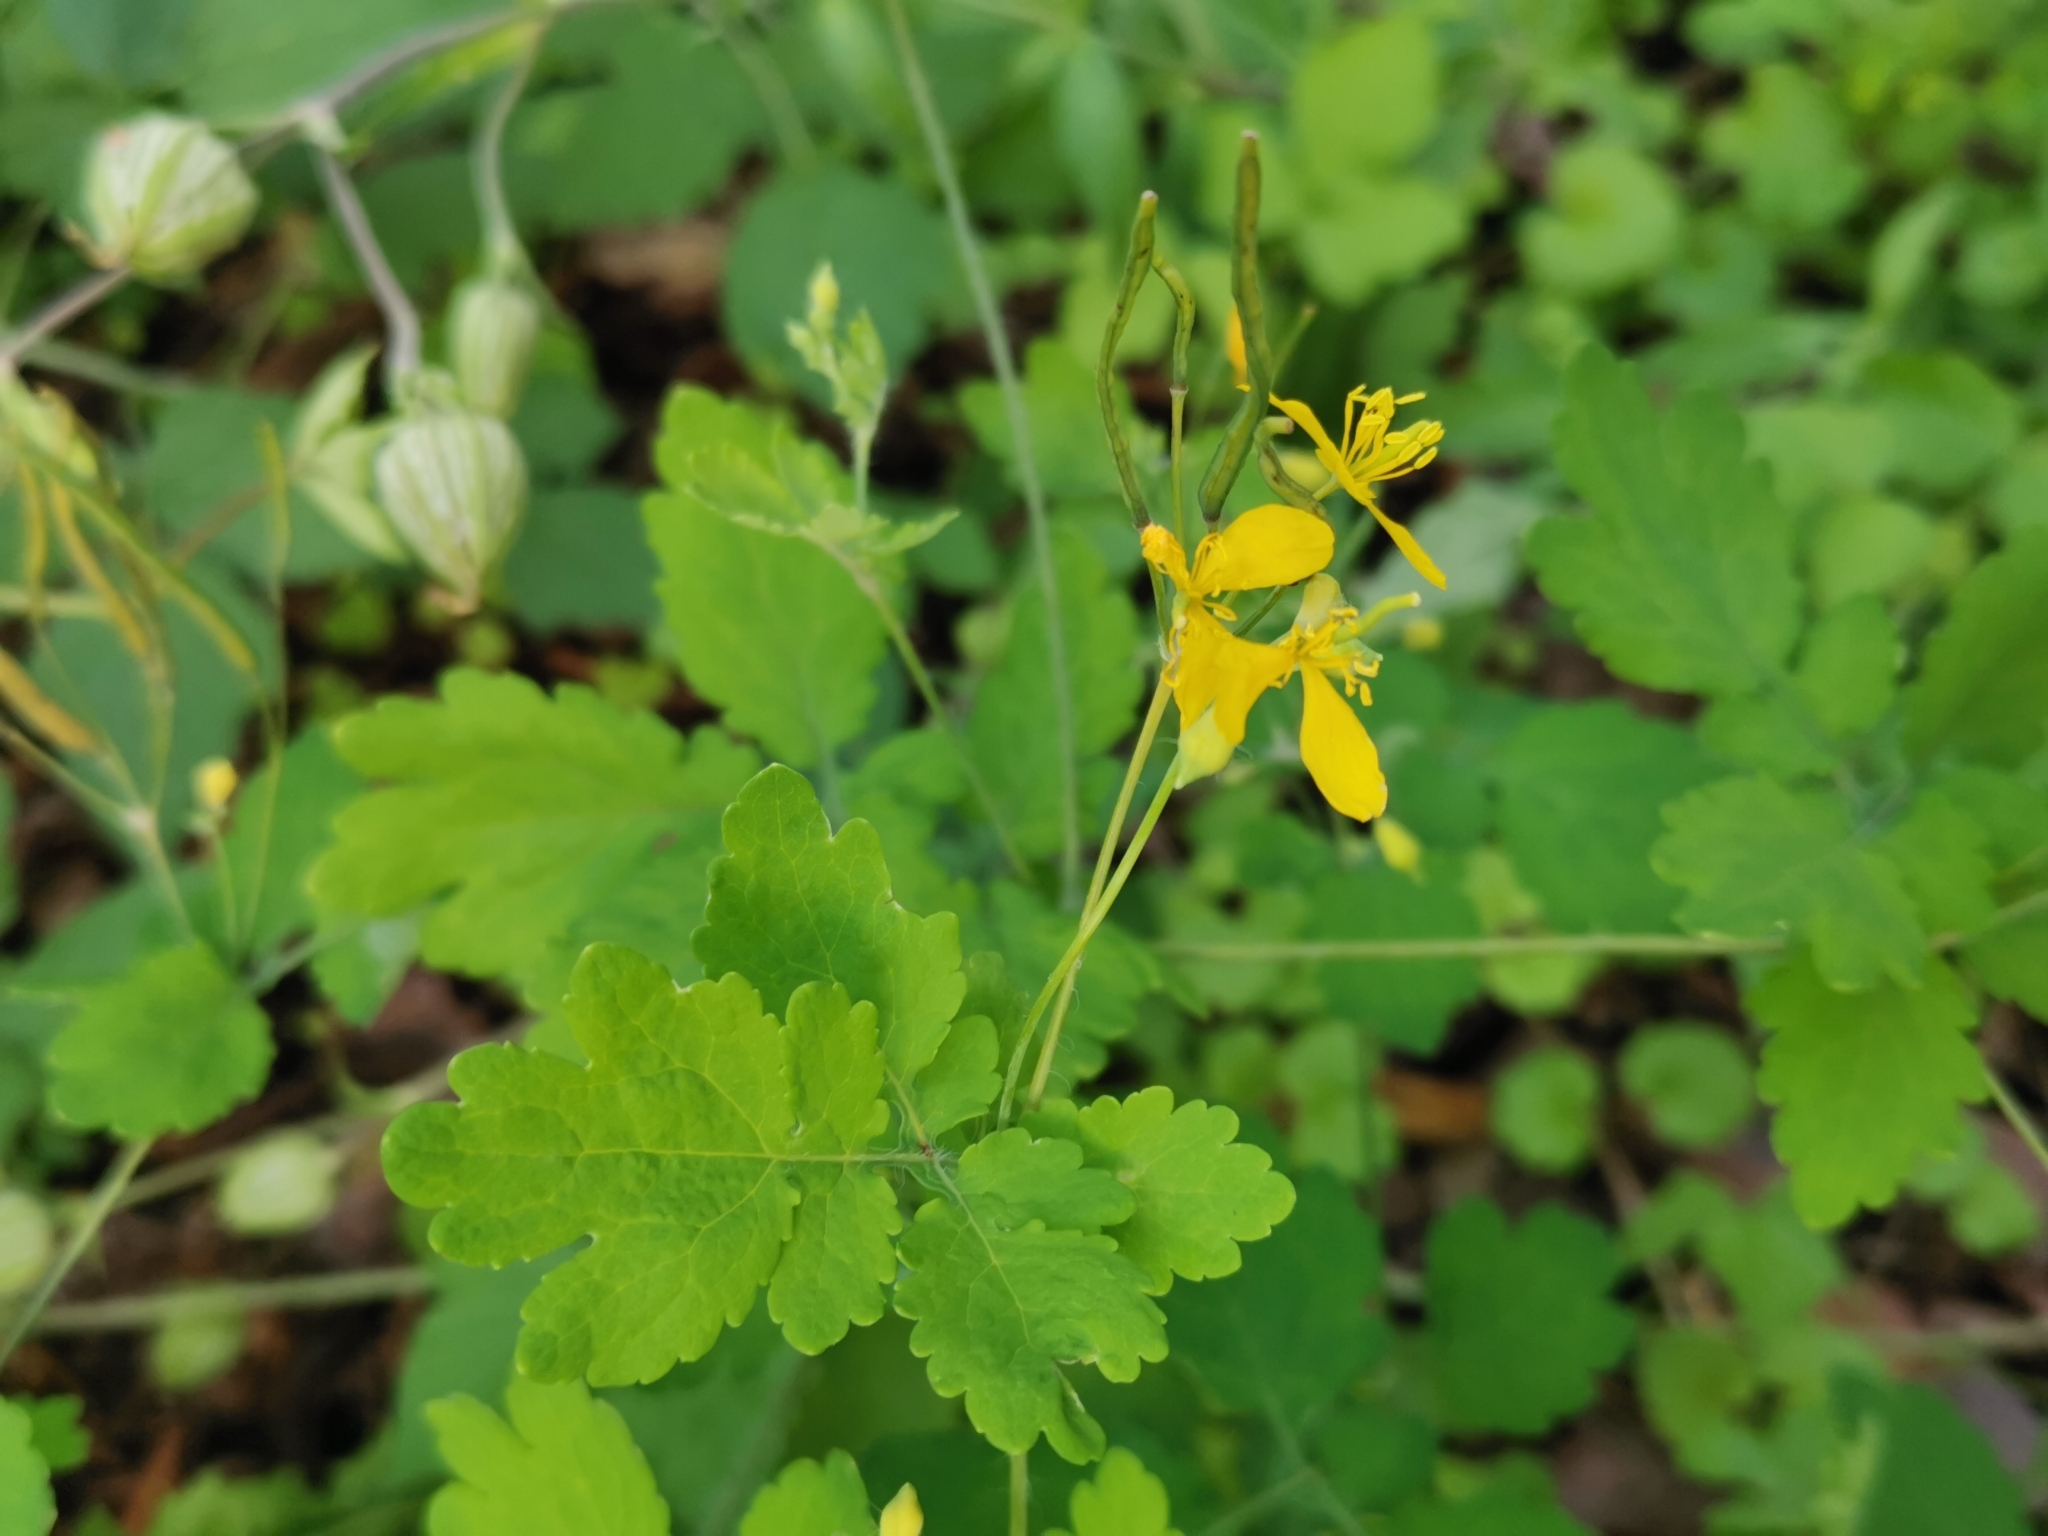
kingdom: Plantae
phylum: Tracheophyta
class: Magnoliopsida
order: Ranunculales
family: Papaveraceae
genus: Chelidonium
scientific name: Chelidonium majus
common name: Greater celandine
